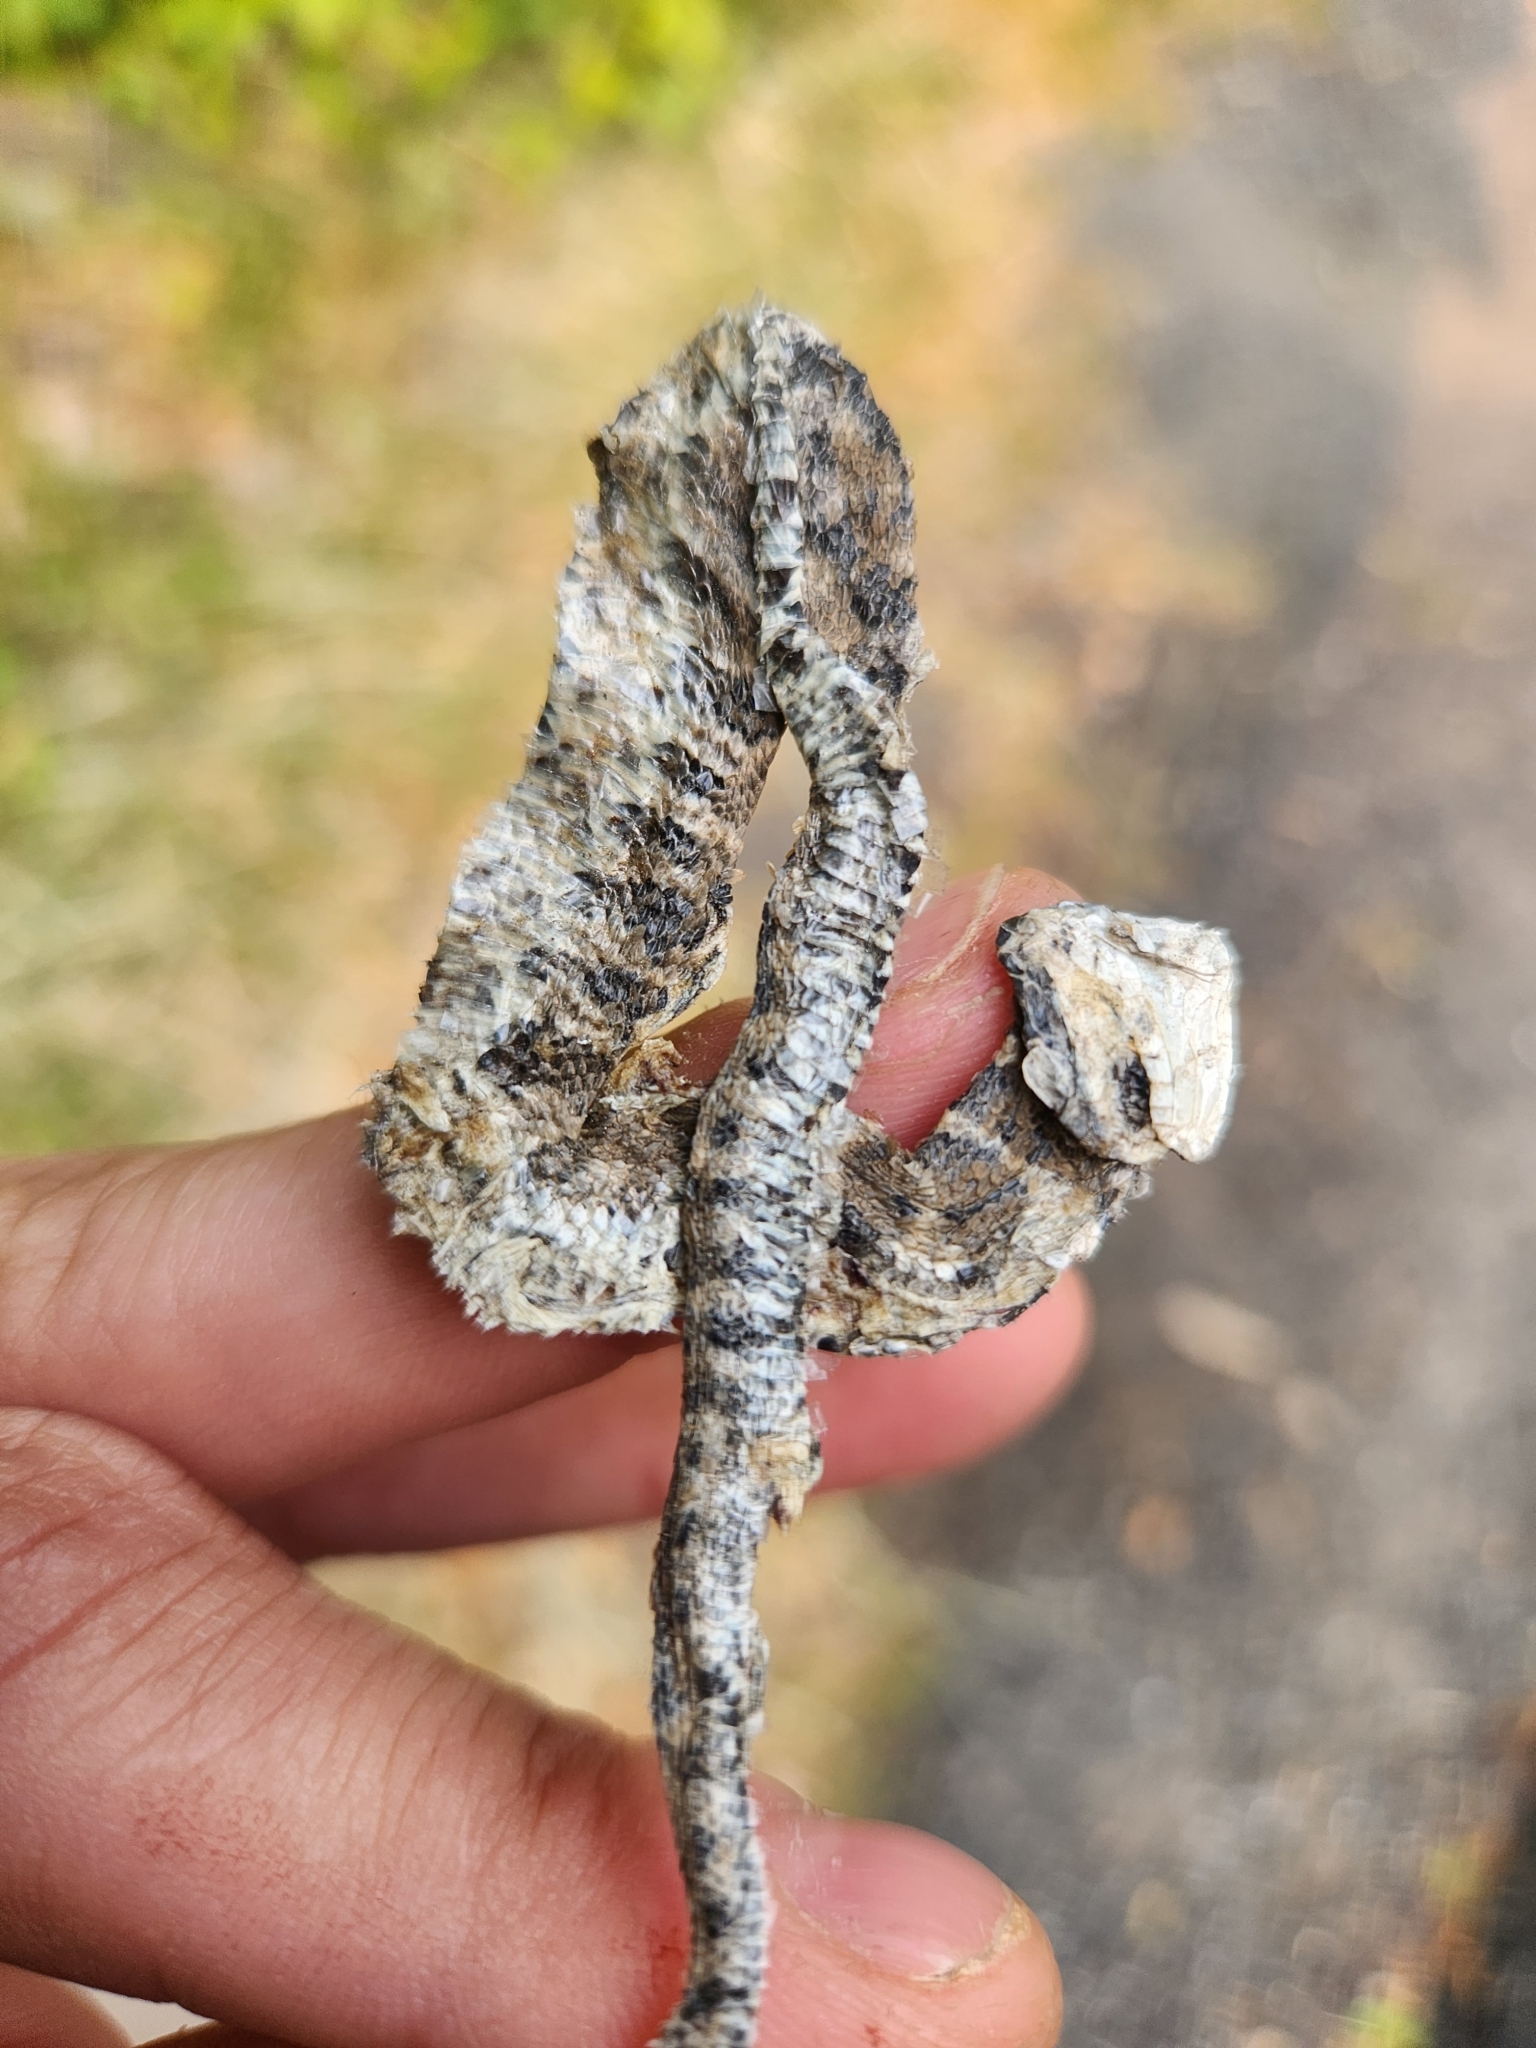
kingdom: Animalia
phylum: Chordata
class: Squamata
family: Colubridae
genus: Nerodia
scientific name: Nerodia sipedon
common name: Northern water snake
